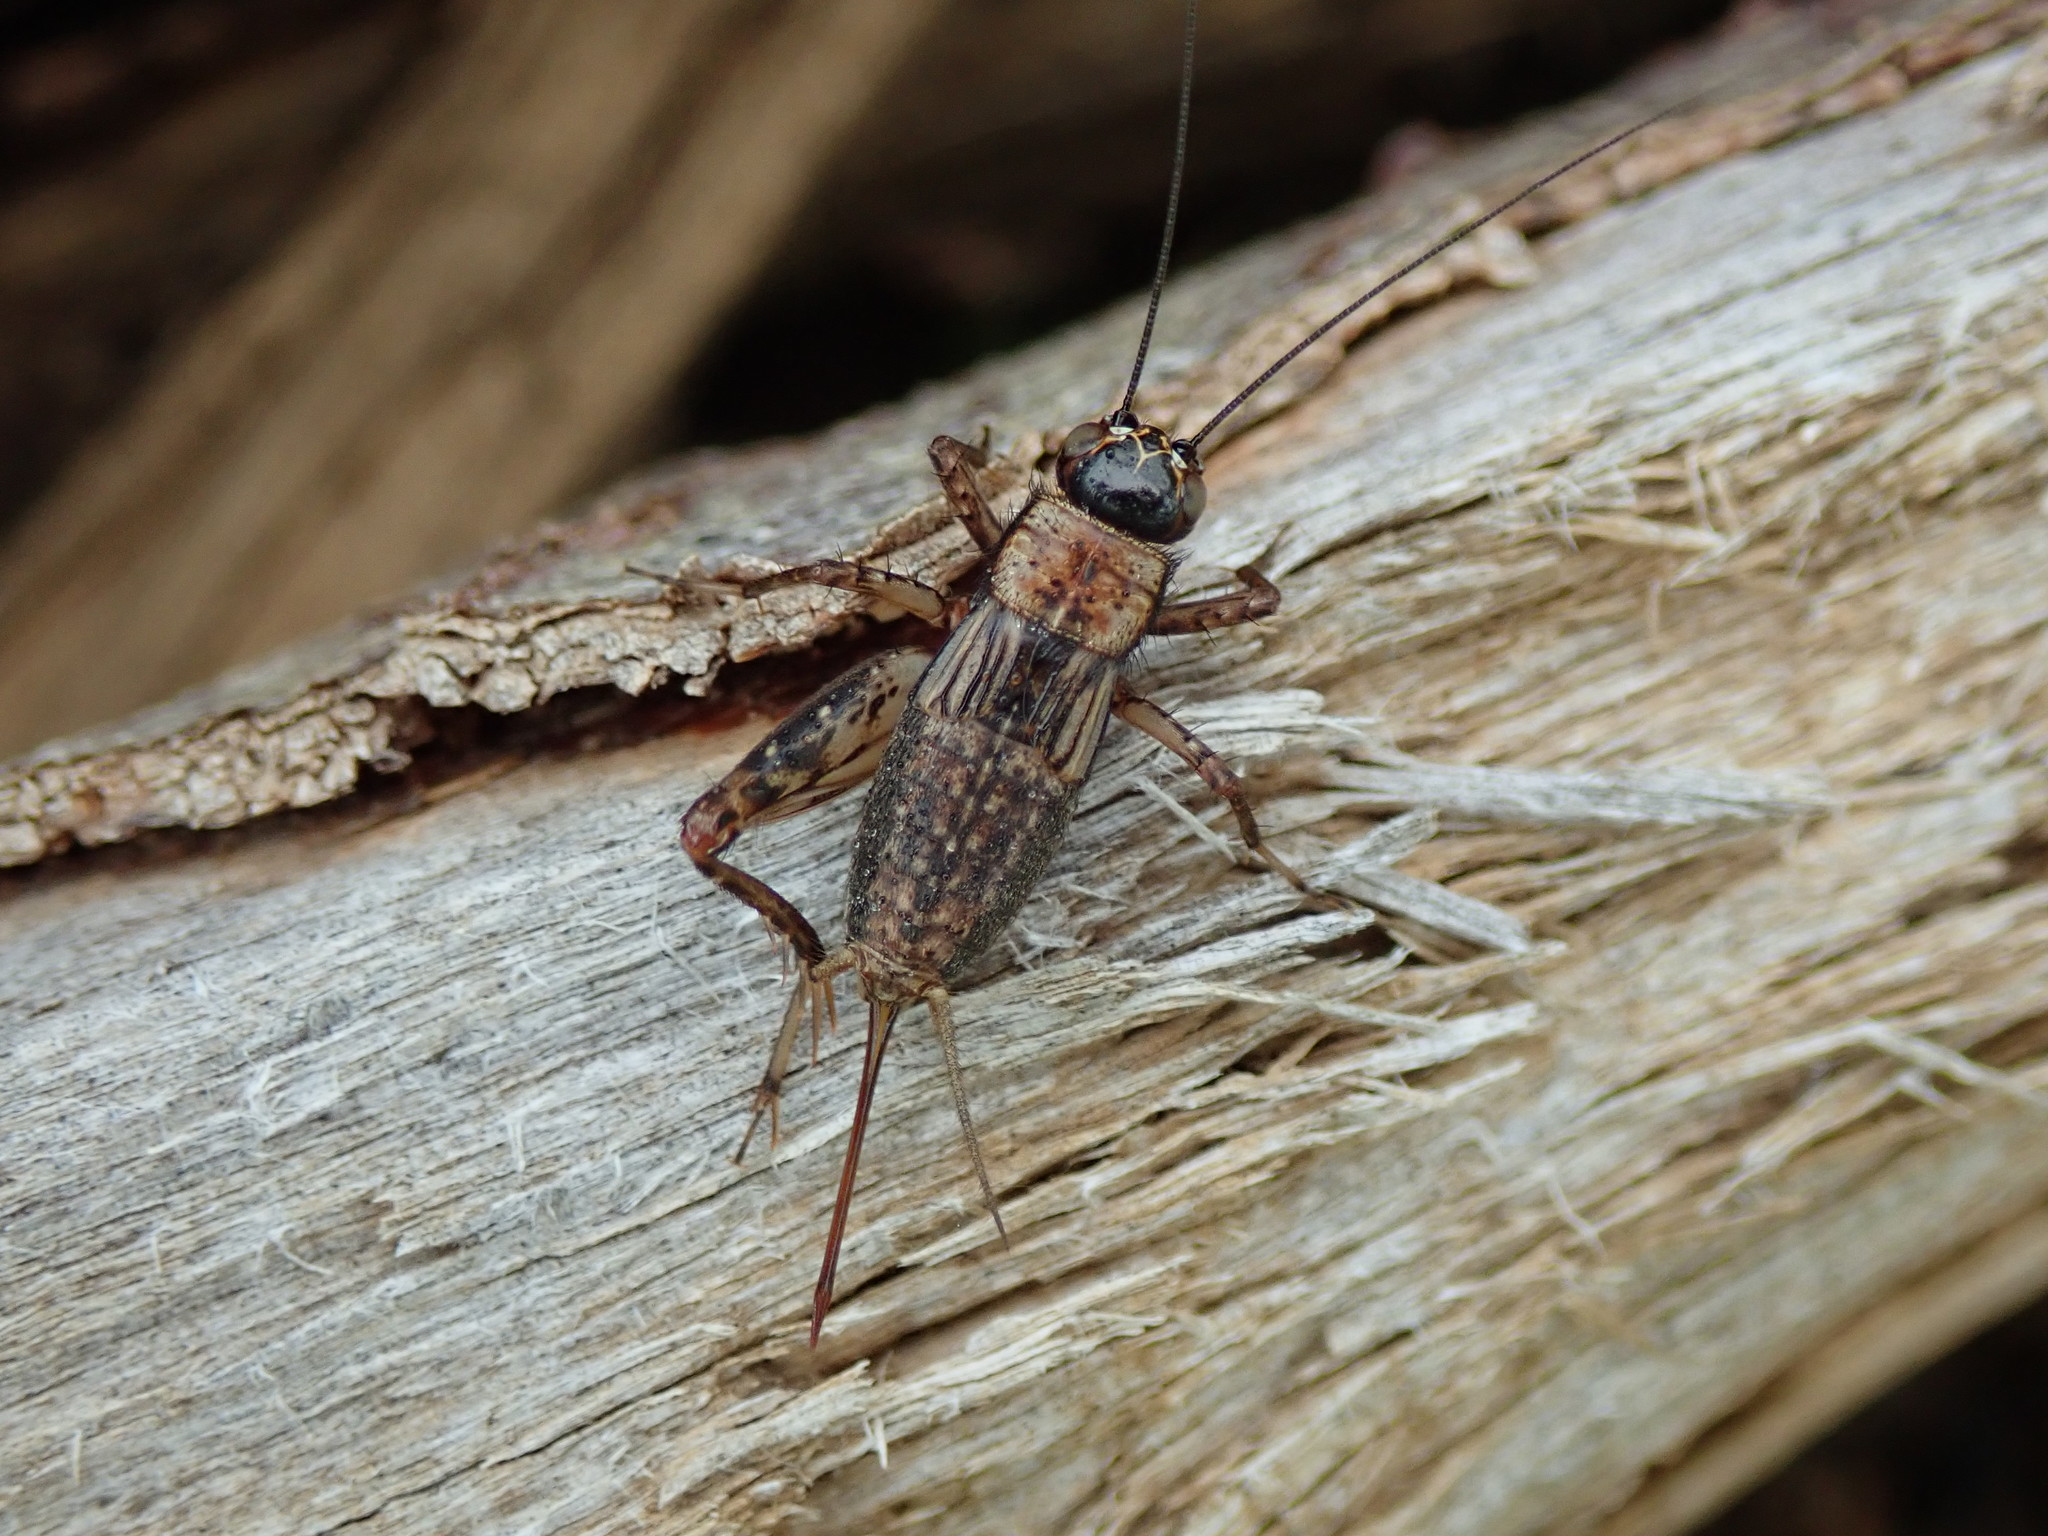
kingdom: Animalia
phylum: Arthropoda
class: Insecta
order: Orthoptera
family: Trigonidiidae
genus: Nemobius
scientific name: Nemobius sylvestris
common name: Wood-cricket
